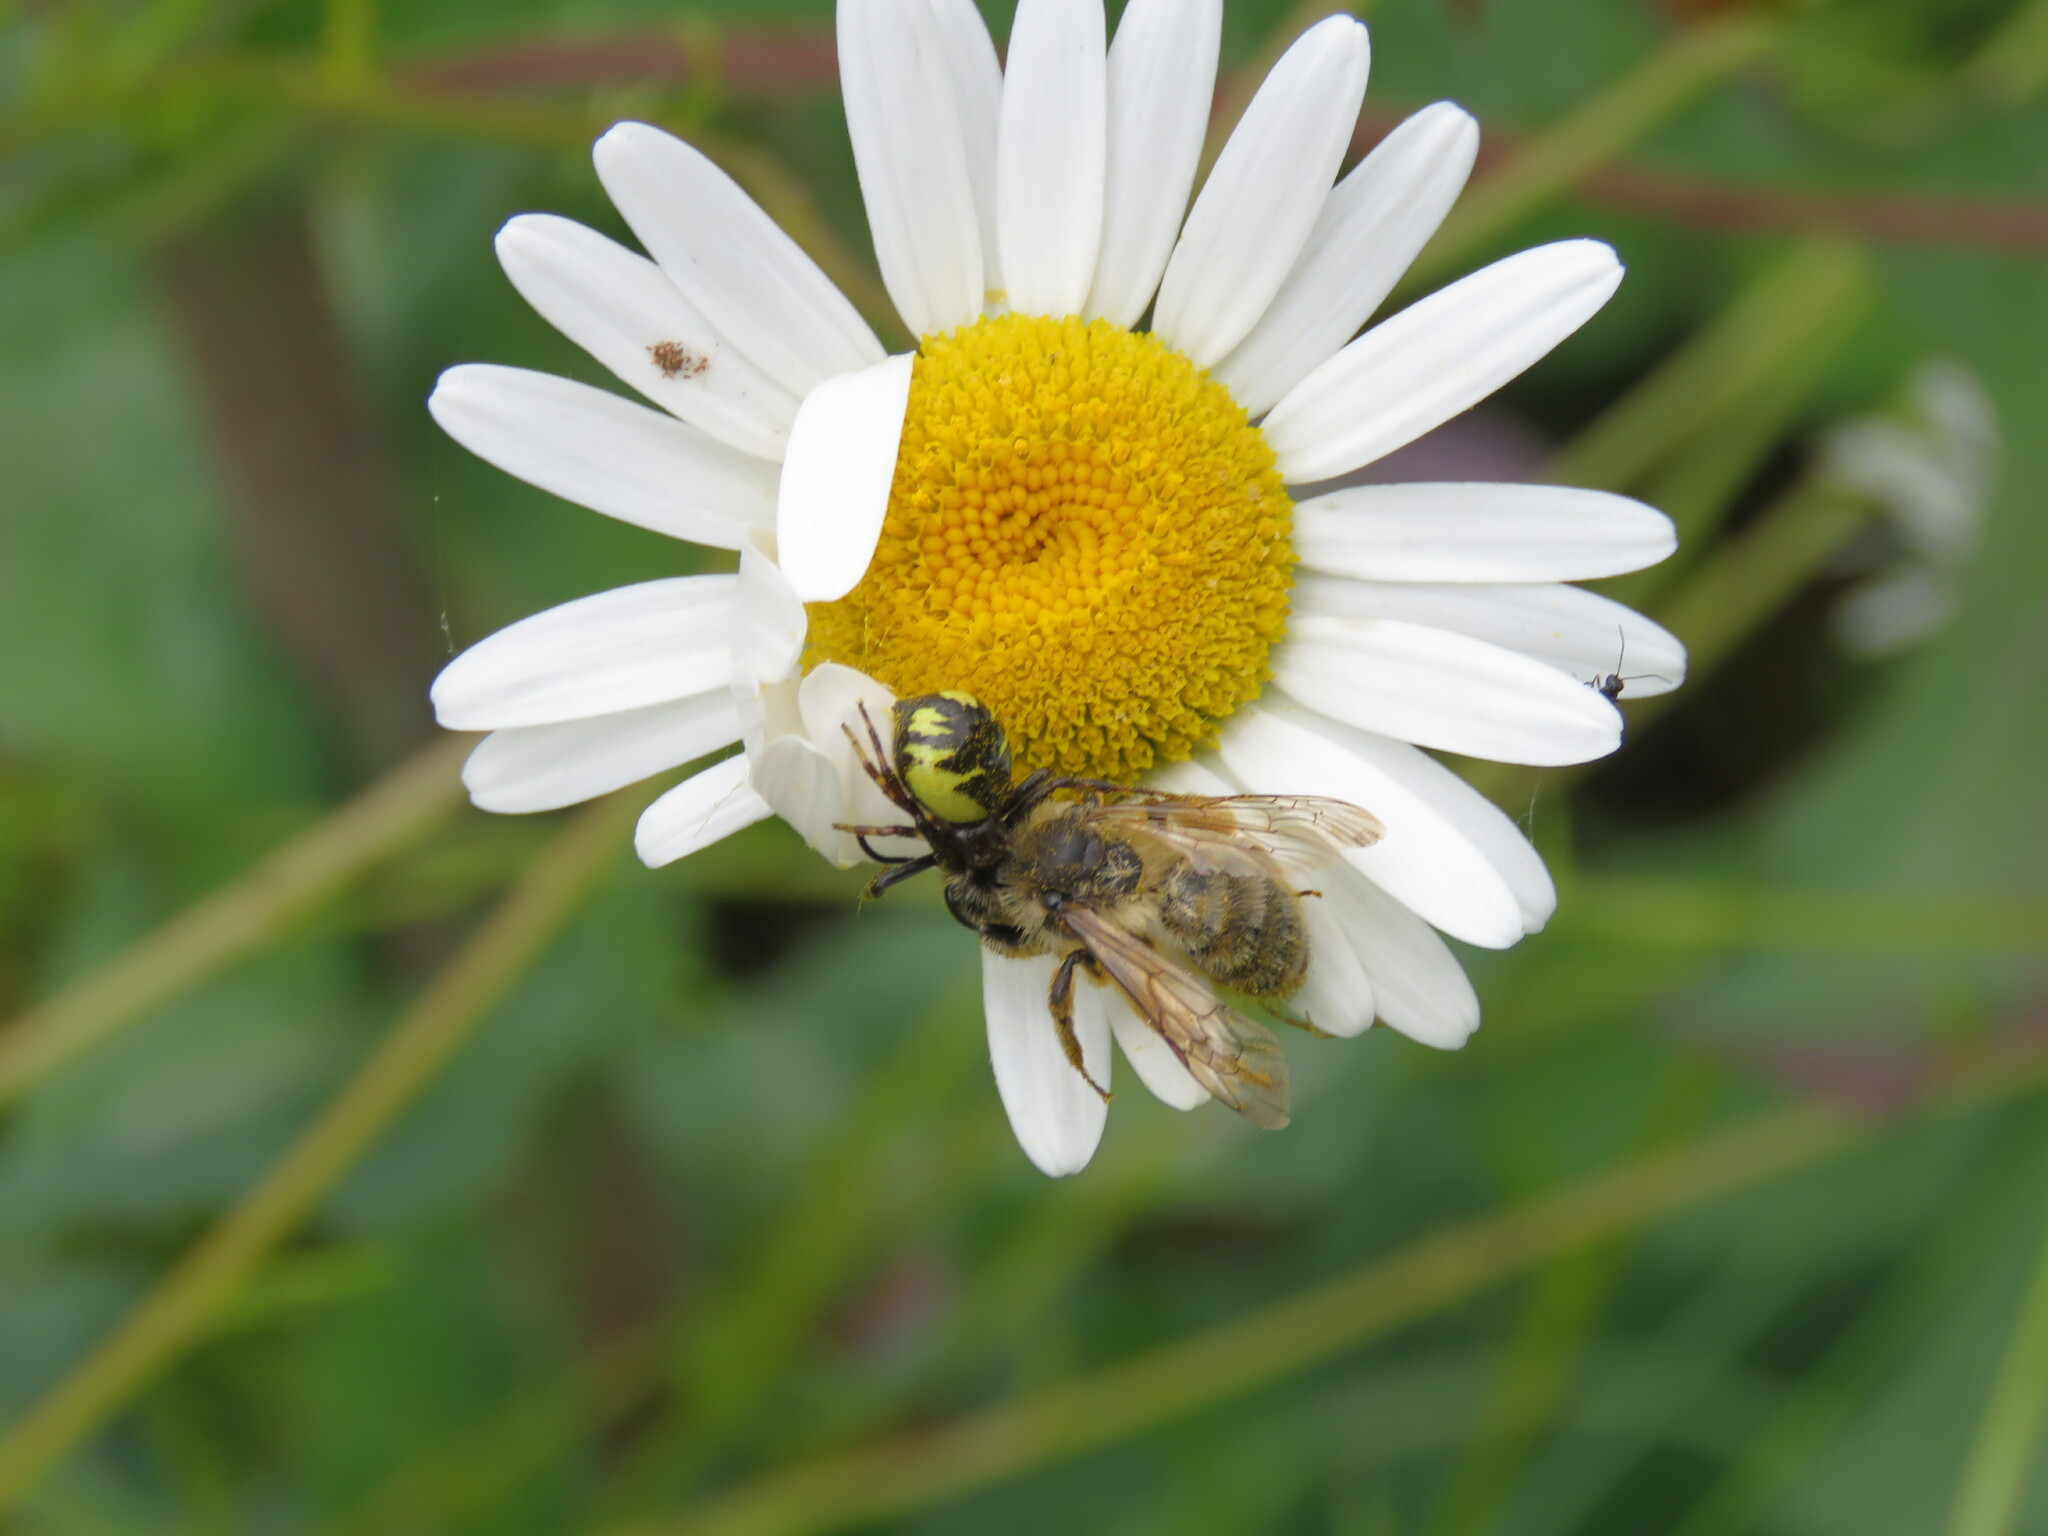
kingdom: Animalia
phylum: Arthropoda
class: Arachnida
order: Araneae
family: Thomisidae
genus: Synema
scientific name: Synema globosum
